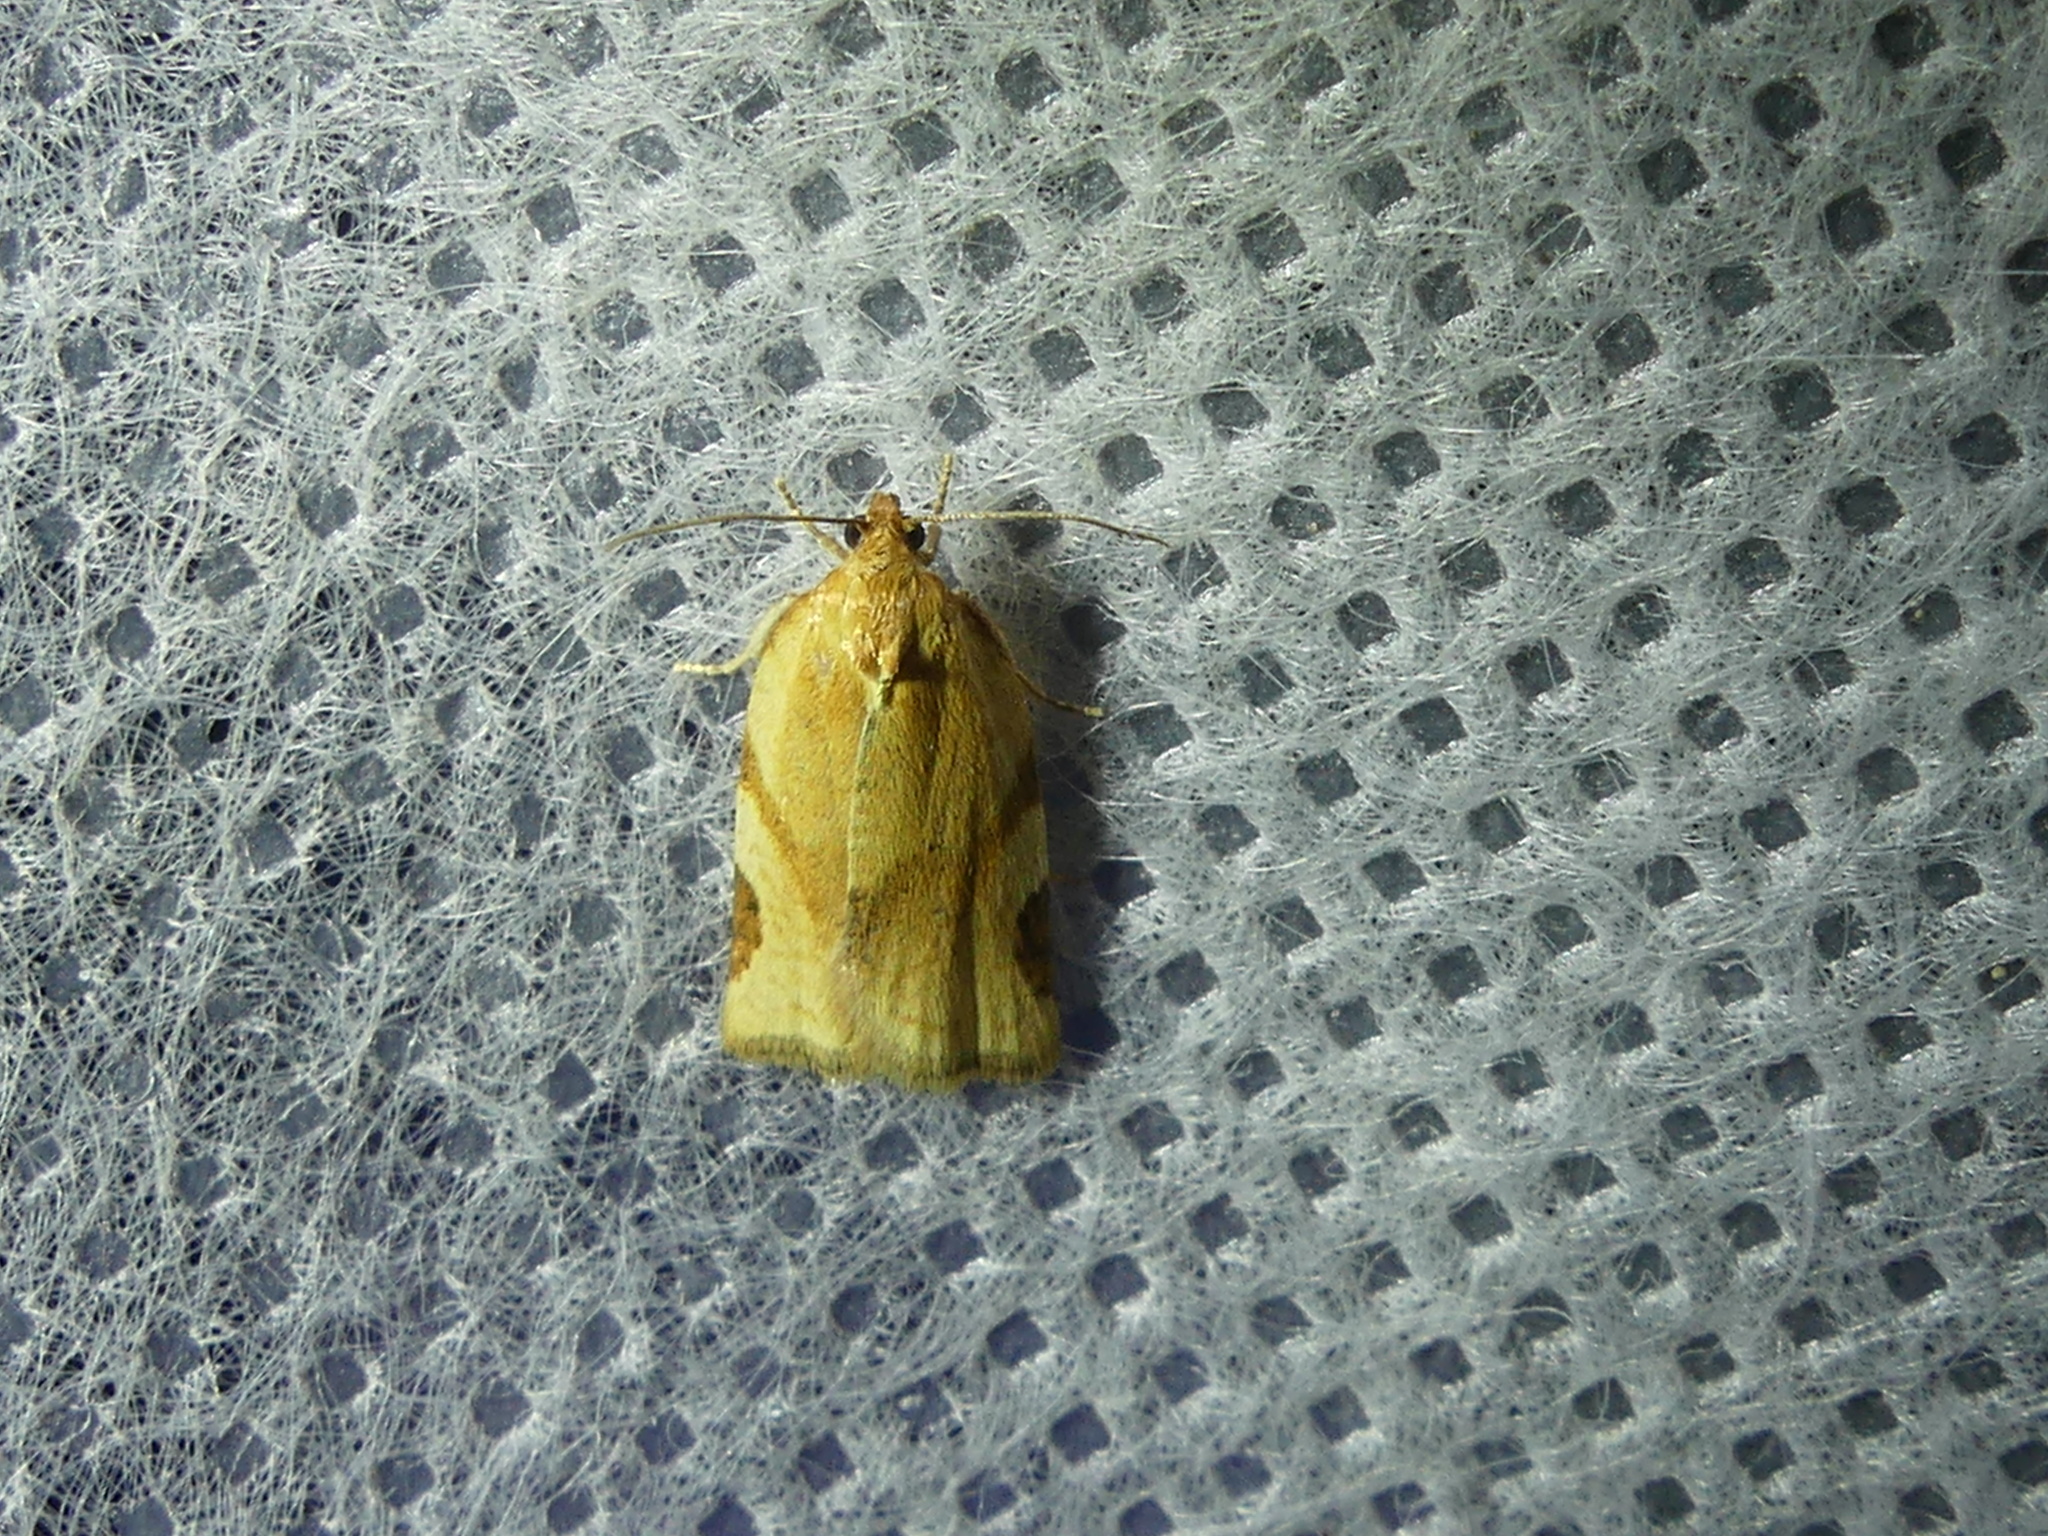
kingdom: Animalia
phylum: Arthropoda
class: Insecta
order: Lepidoptera
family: Tortricidae
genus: Paramesia
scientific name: Paramesia gnomana
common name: Small straw twist
